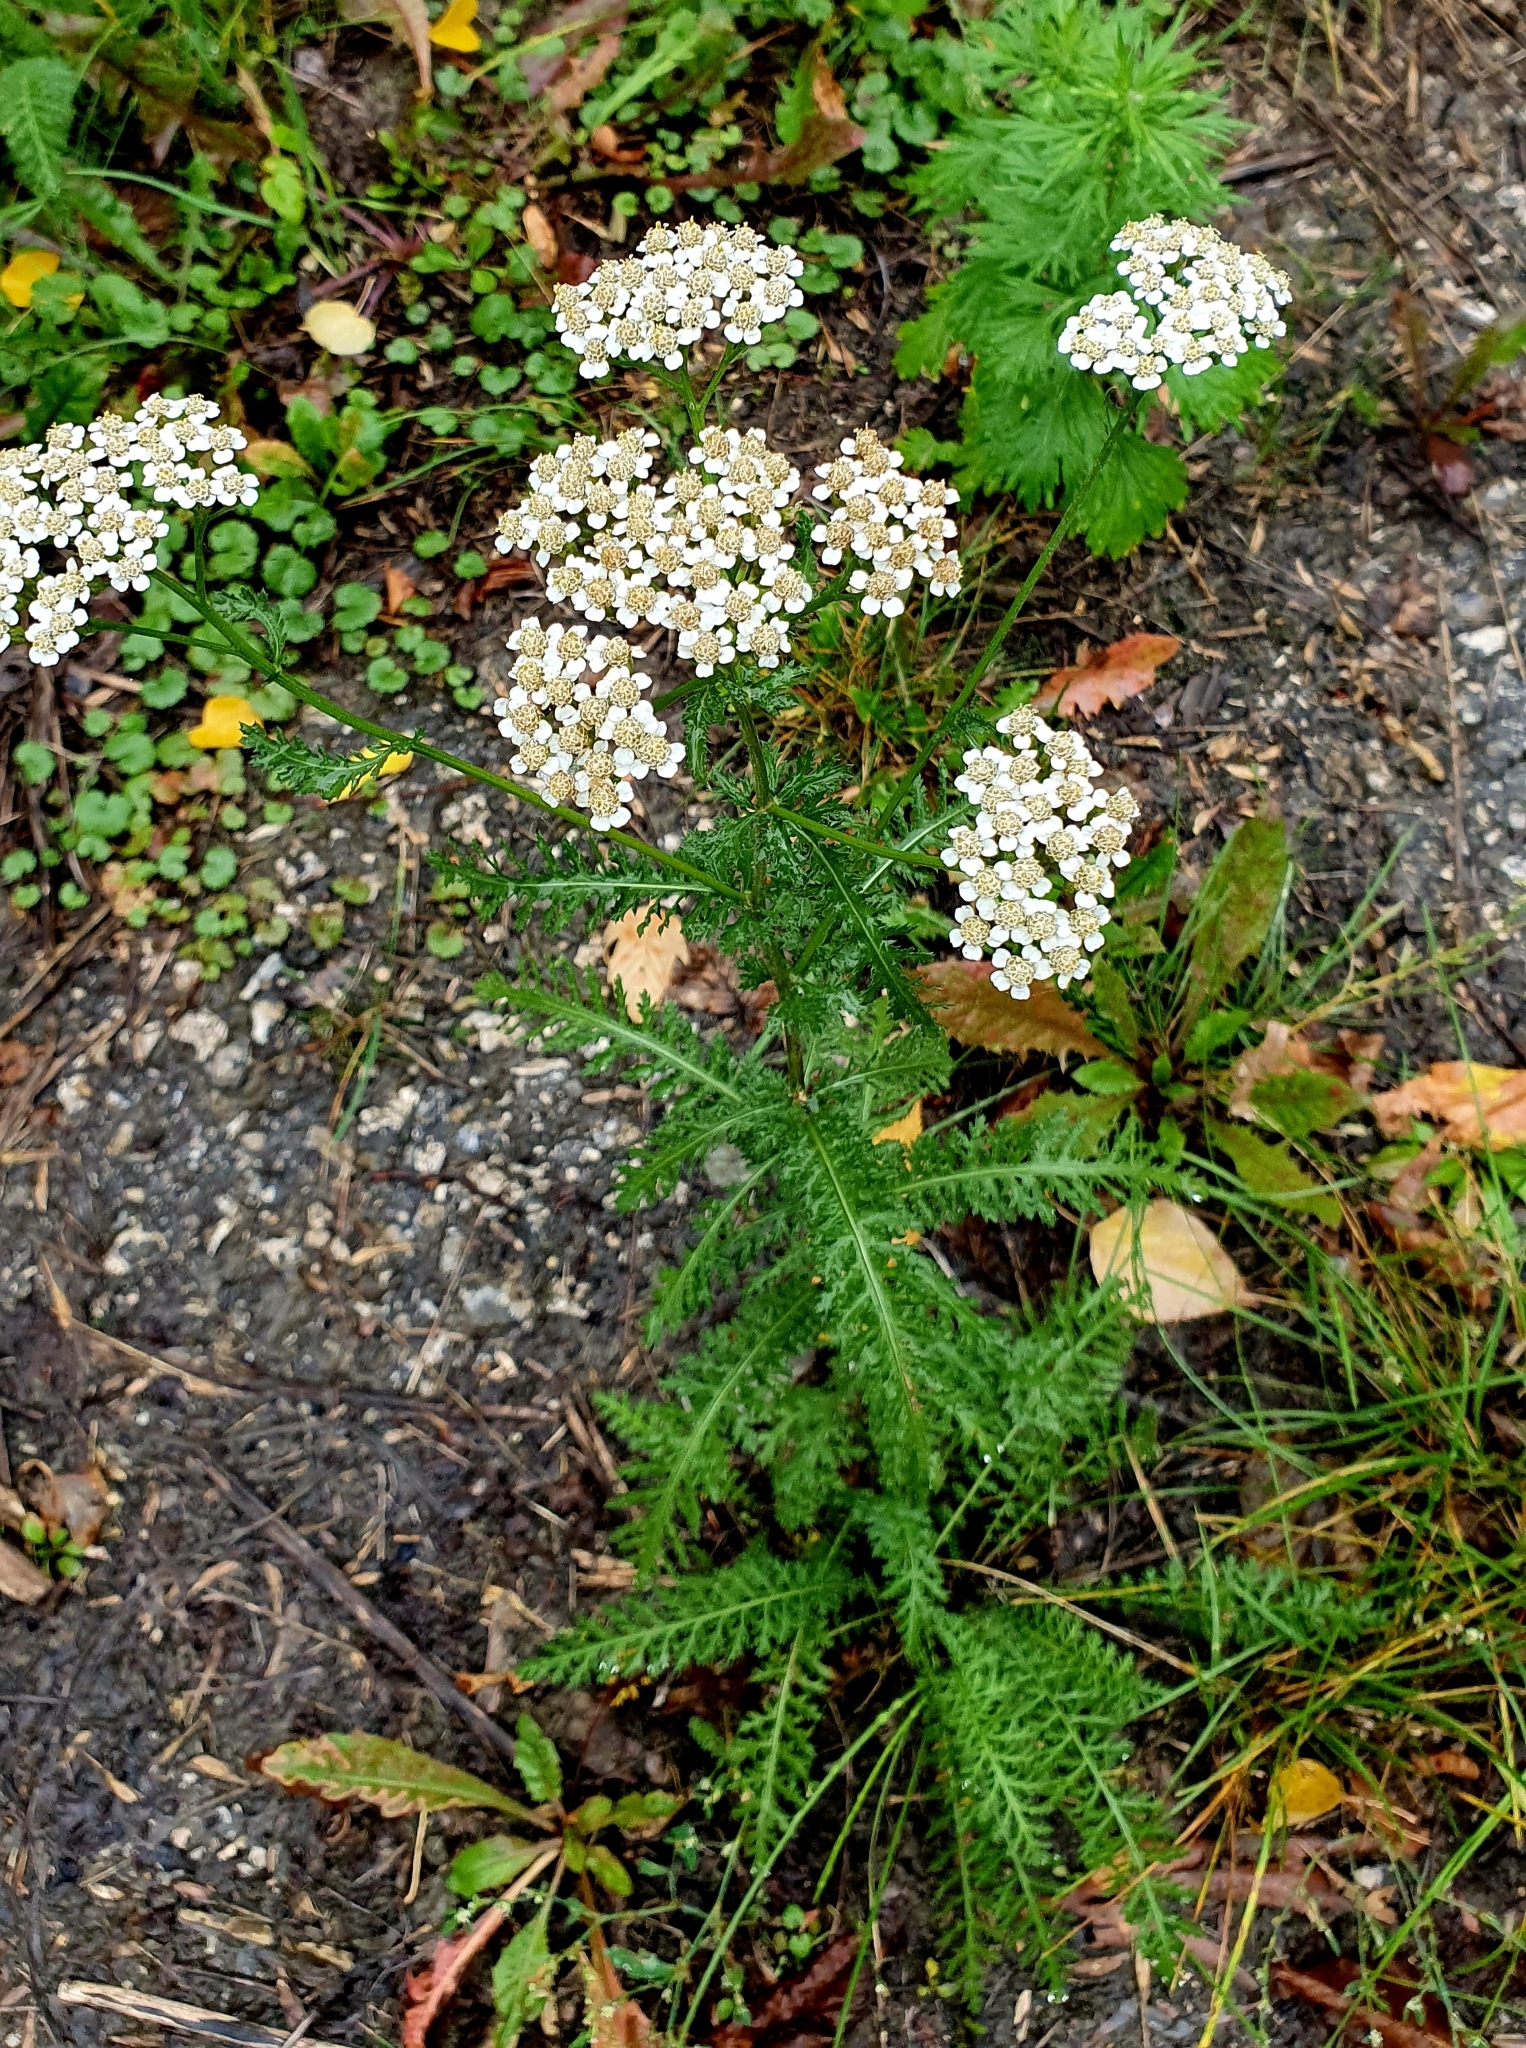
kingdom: Plantae
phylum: Tracheophyta
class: Magnoliopsida
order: Asterales
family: Asteraceae
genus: Achillea
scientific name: Achillea millefolium
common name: Yarrow
